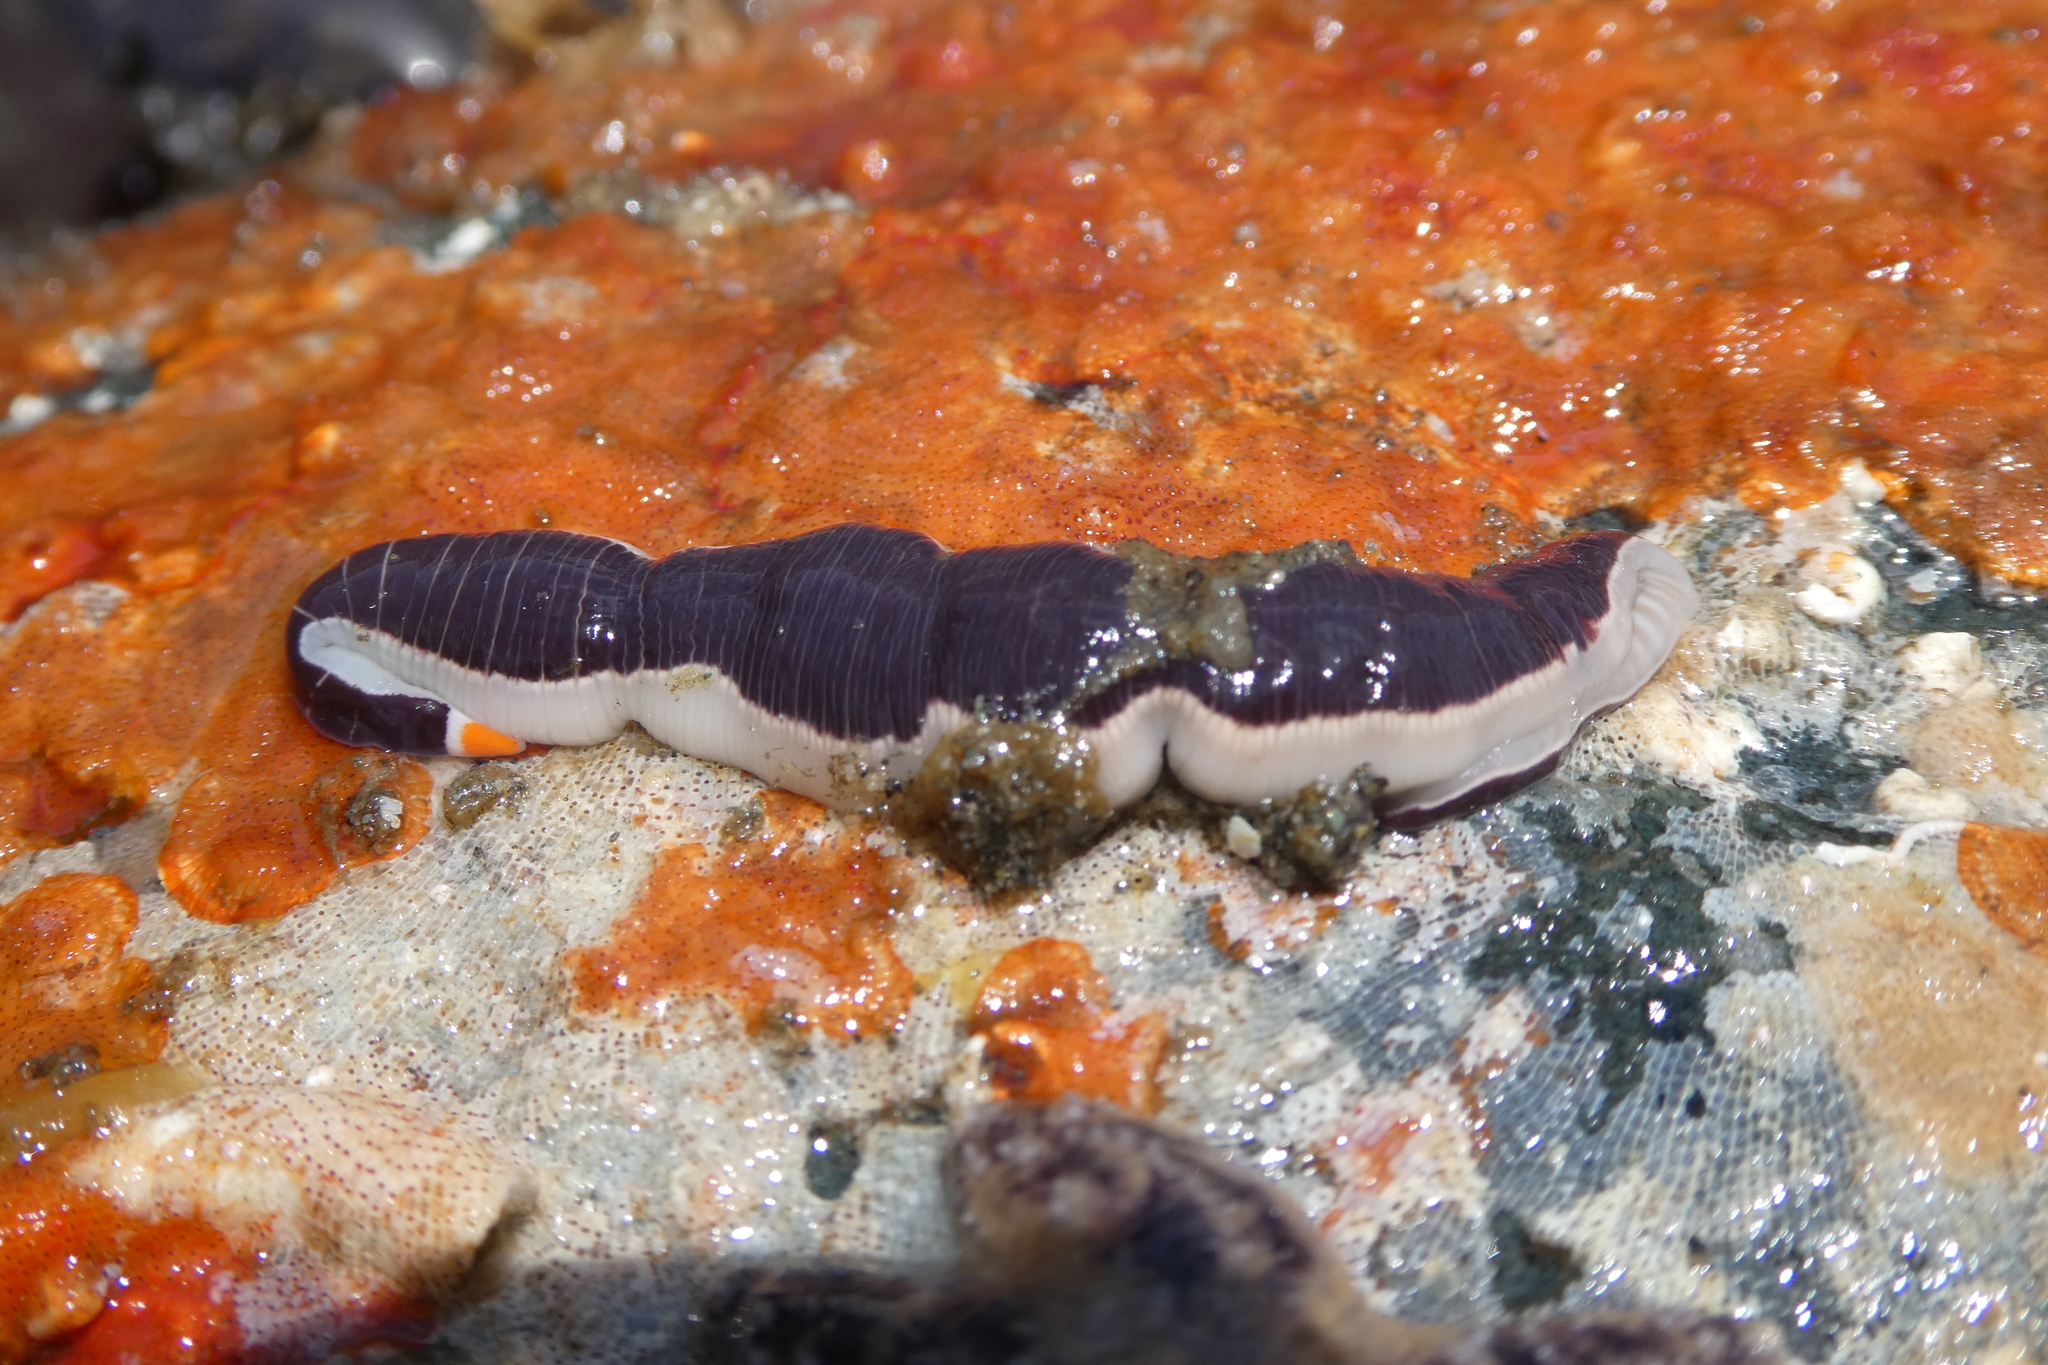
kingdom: Animalia
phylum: Nemertea
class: Pilidiophora
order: Heteronemertea
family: Lineidae
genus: Micrura
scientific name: Micrura verrilli
